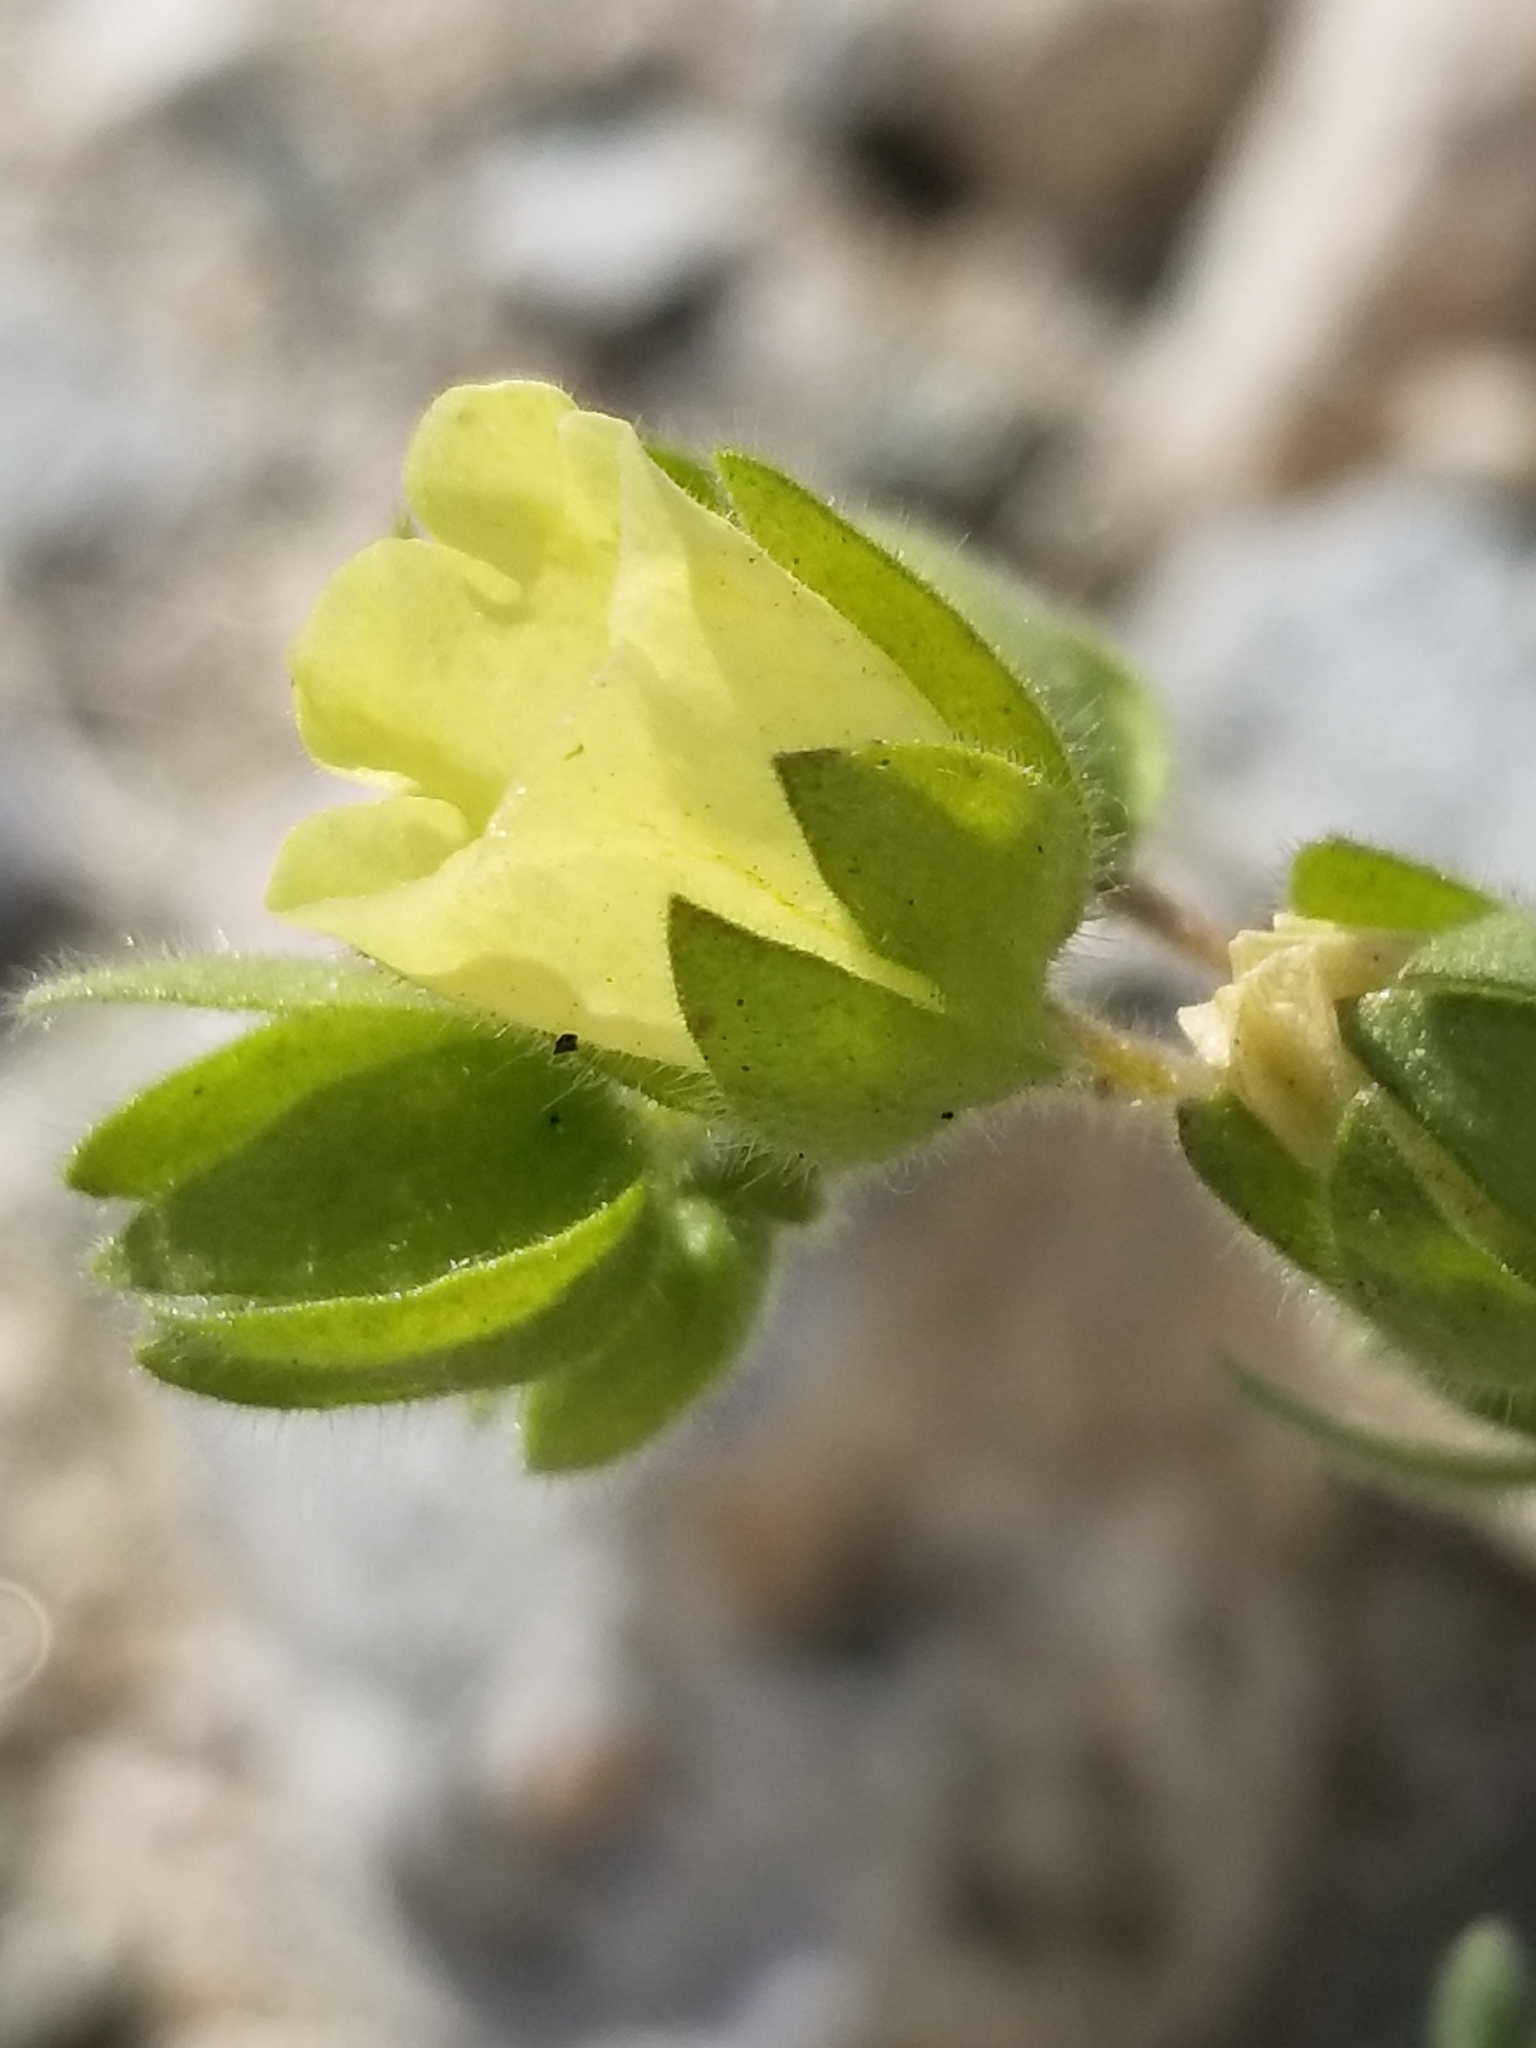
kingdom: Plantae
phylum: Tracheophyta
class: Magnoliopsida
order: Boraginales
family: Hydrophyllaceae
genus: Emmenanthe
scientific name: Emmenanthe penduliflora
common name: Whispering-bells
